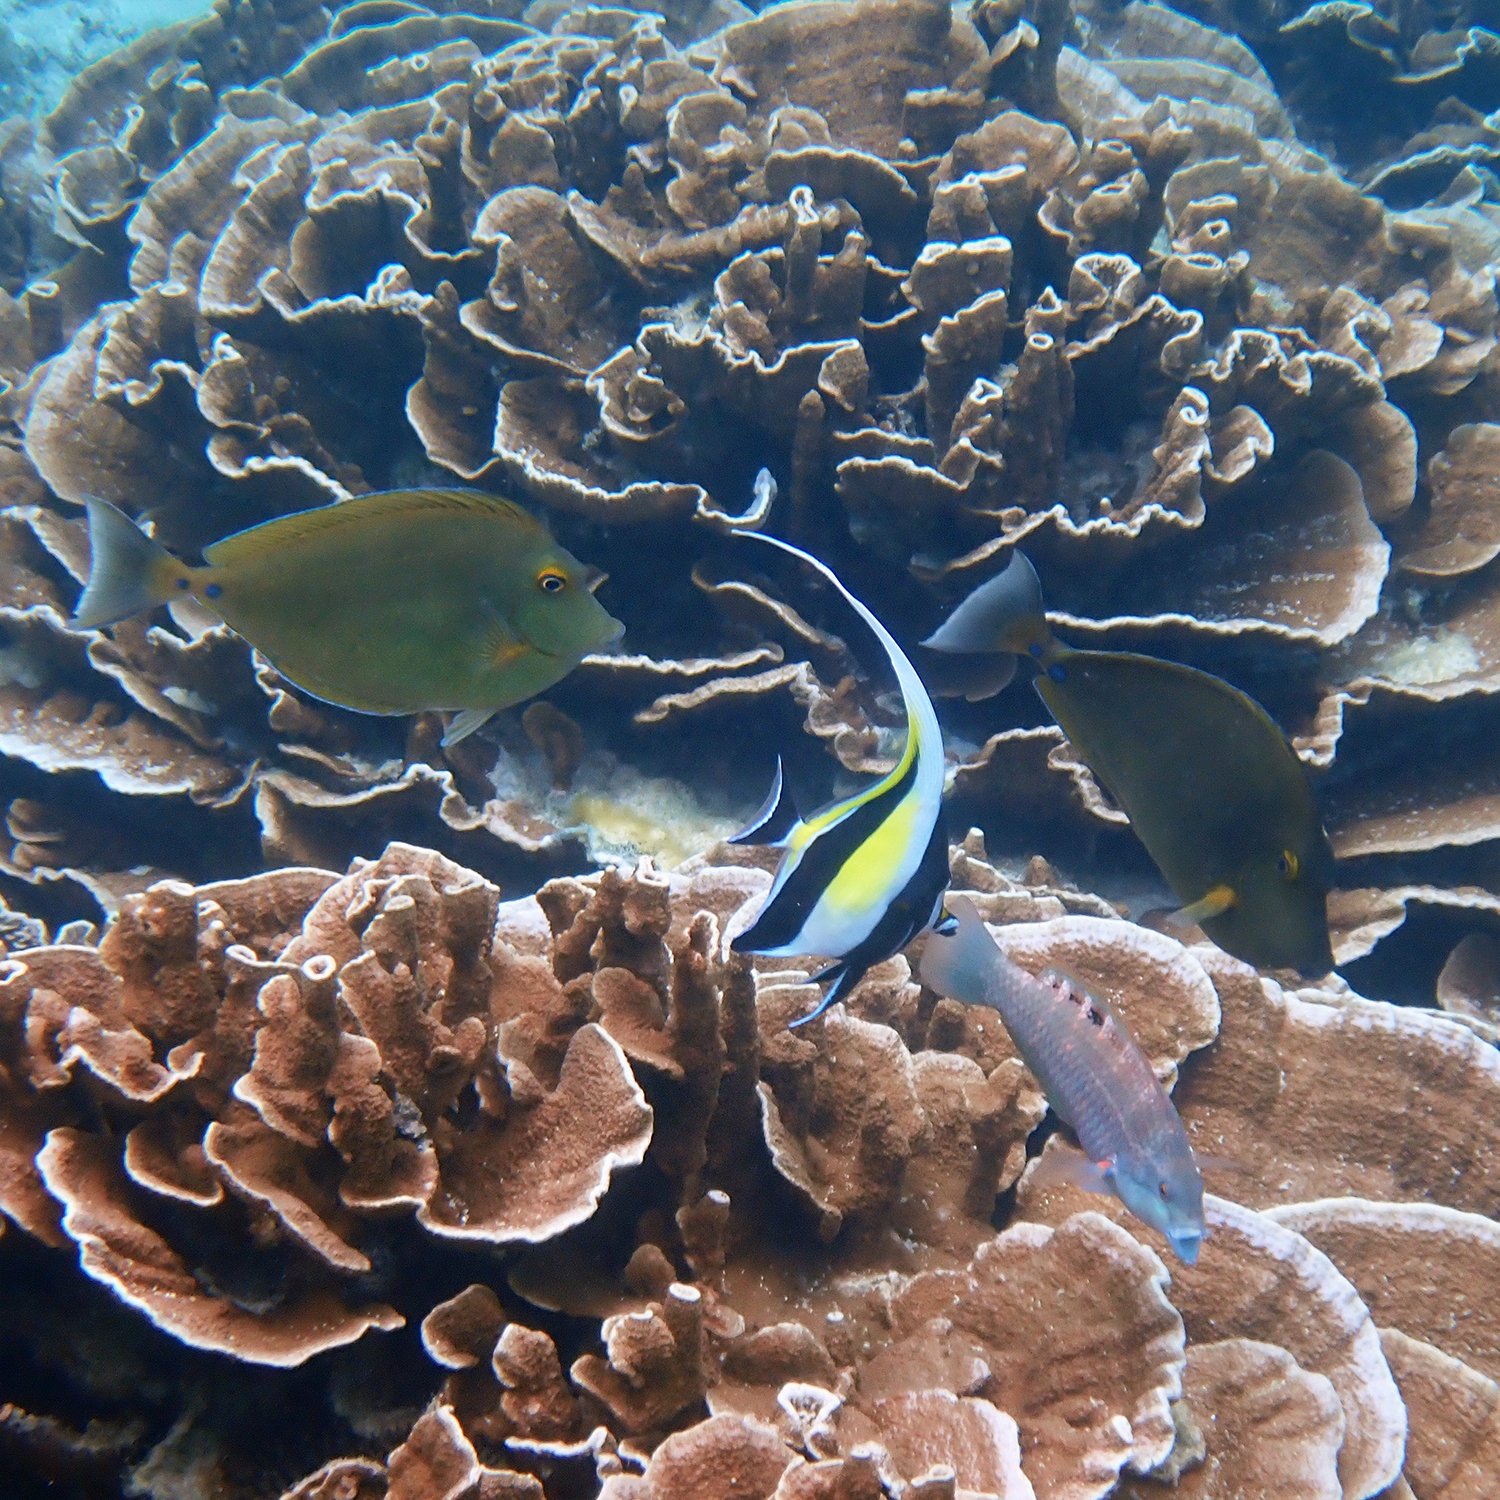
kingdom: Animalia
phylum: Chordata
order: Perciformes
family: Zanclidae
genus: Zanclus
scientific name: Zanclus cornutus
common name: Moorish idol
